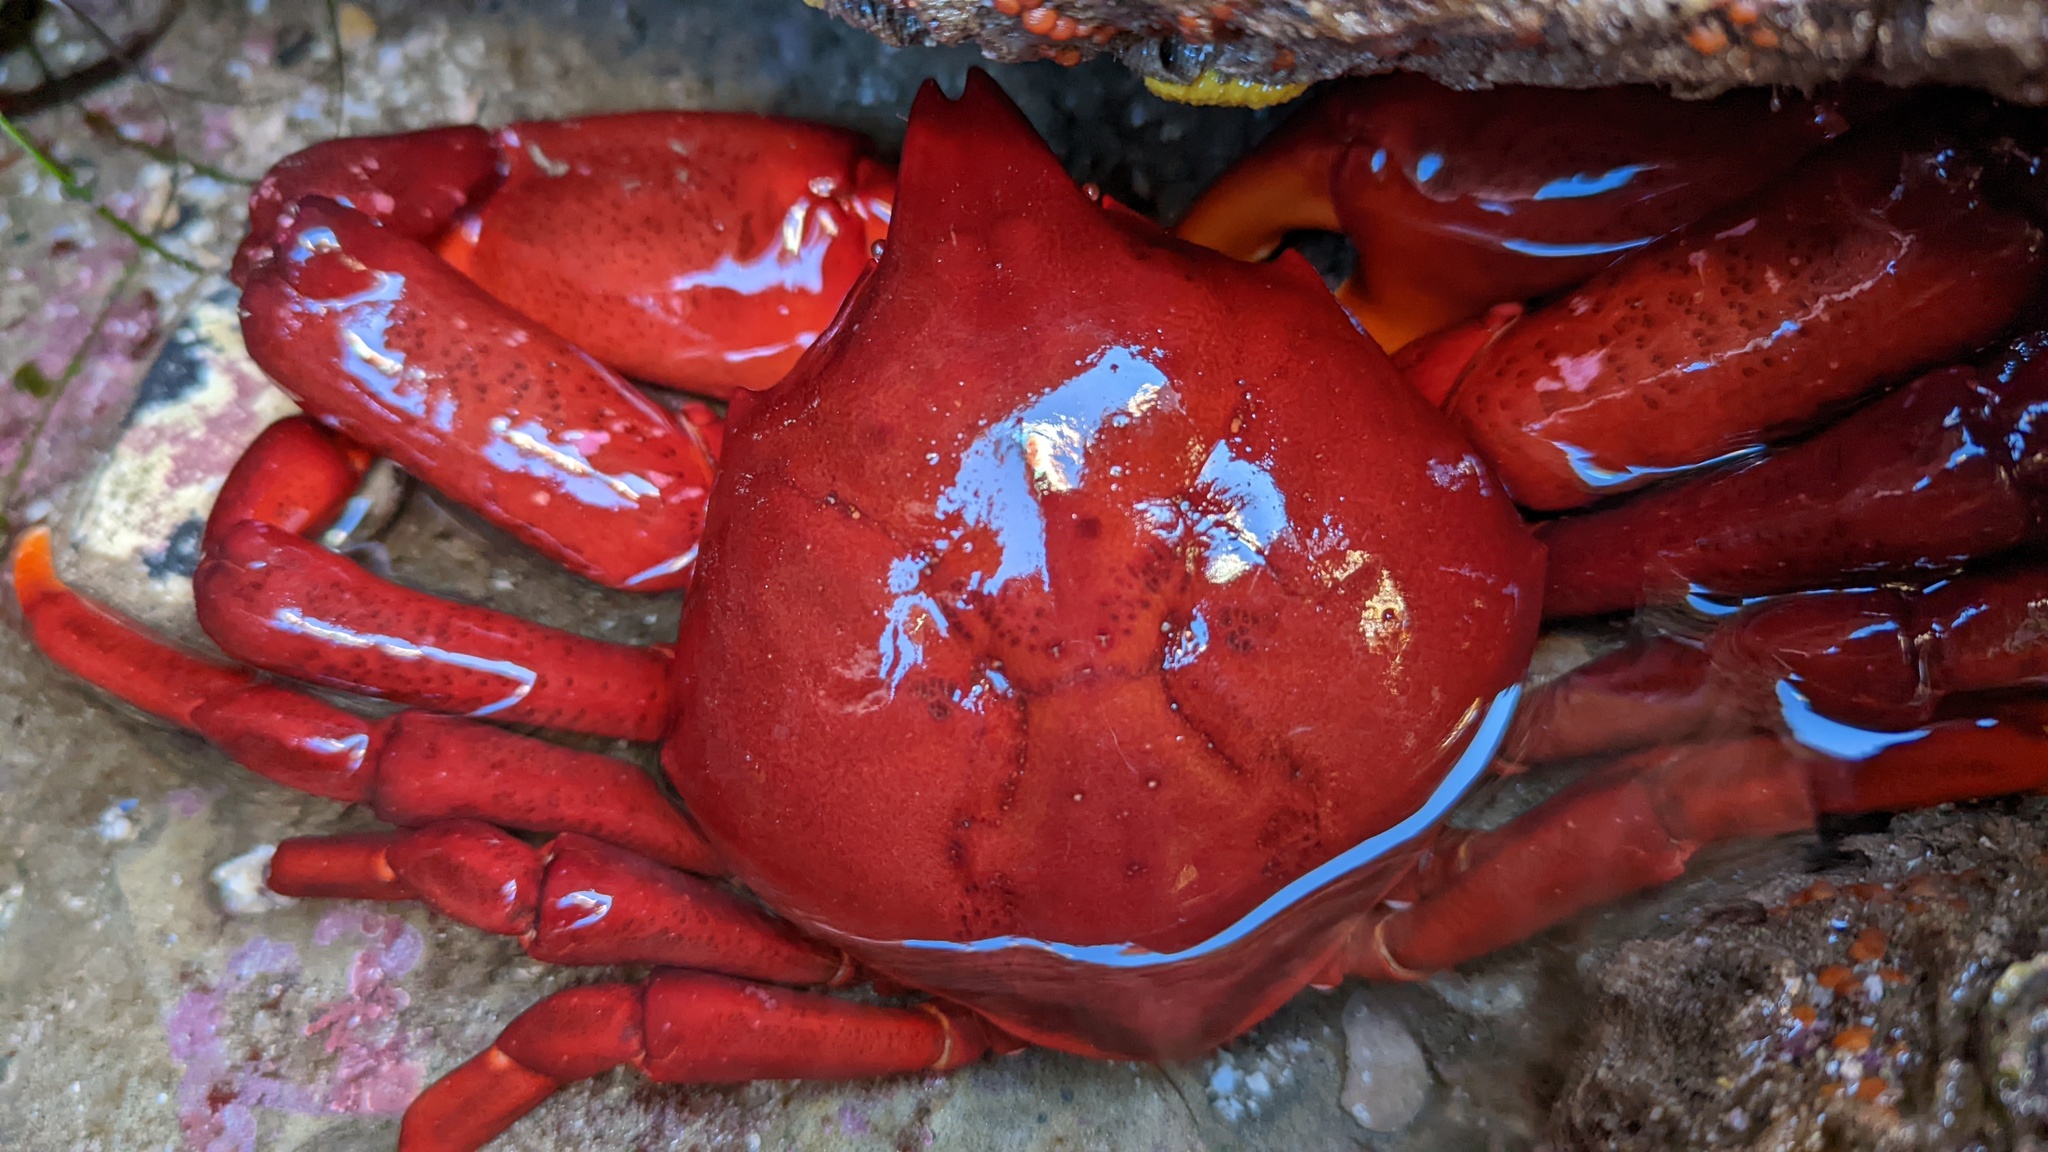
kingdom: Animalia
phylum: Arthropoda
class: Malacostraca
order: Decapoda
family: Epialtidae
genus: Taliepus
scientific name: Taliepus nuttallii
